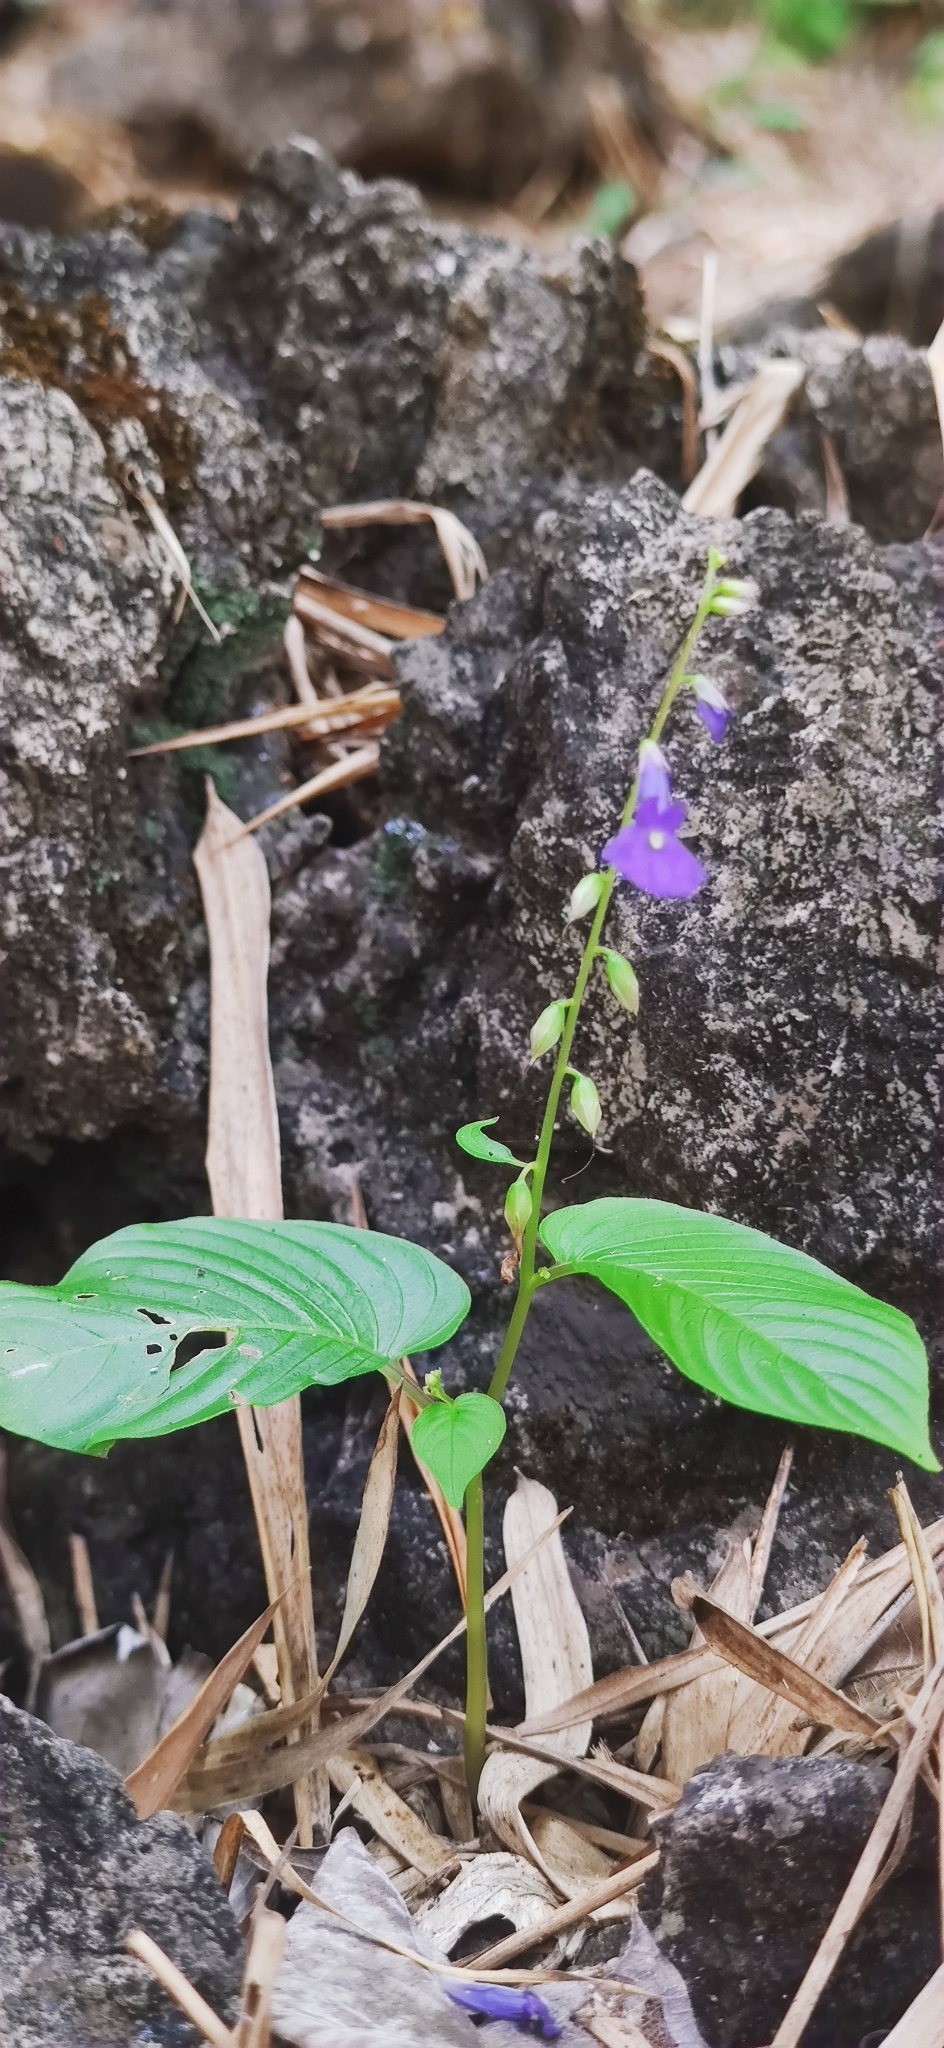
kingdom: Plantae
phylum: Tracheophyta
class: Magnoliopsida
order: Lamiales
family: Gesneriaceae
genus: Rhynchoglossum
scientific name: Rhynchoglossum obliquum
